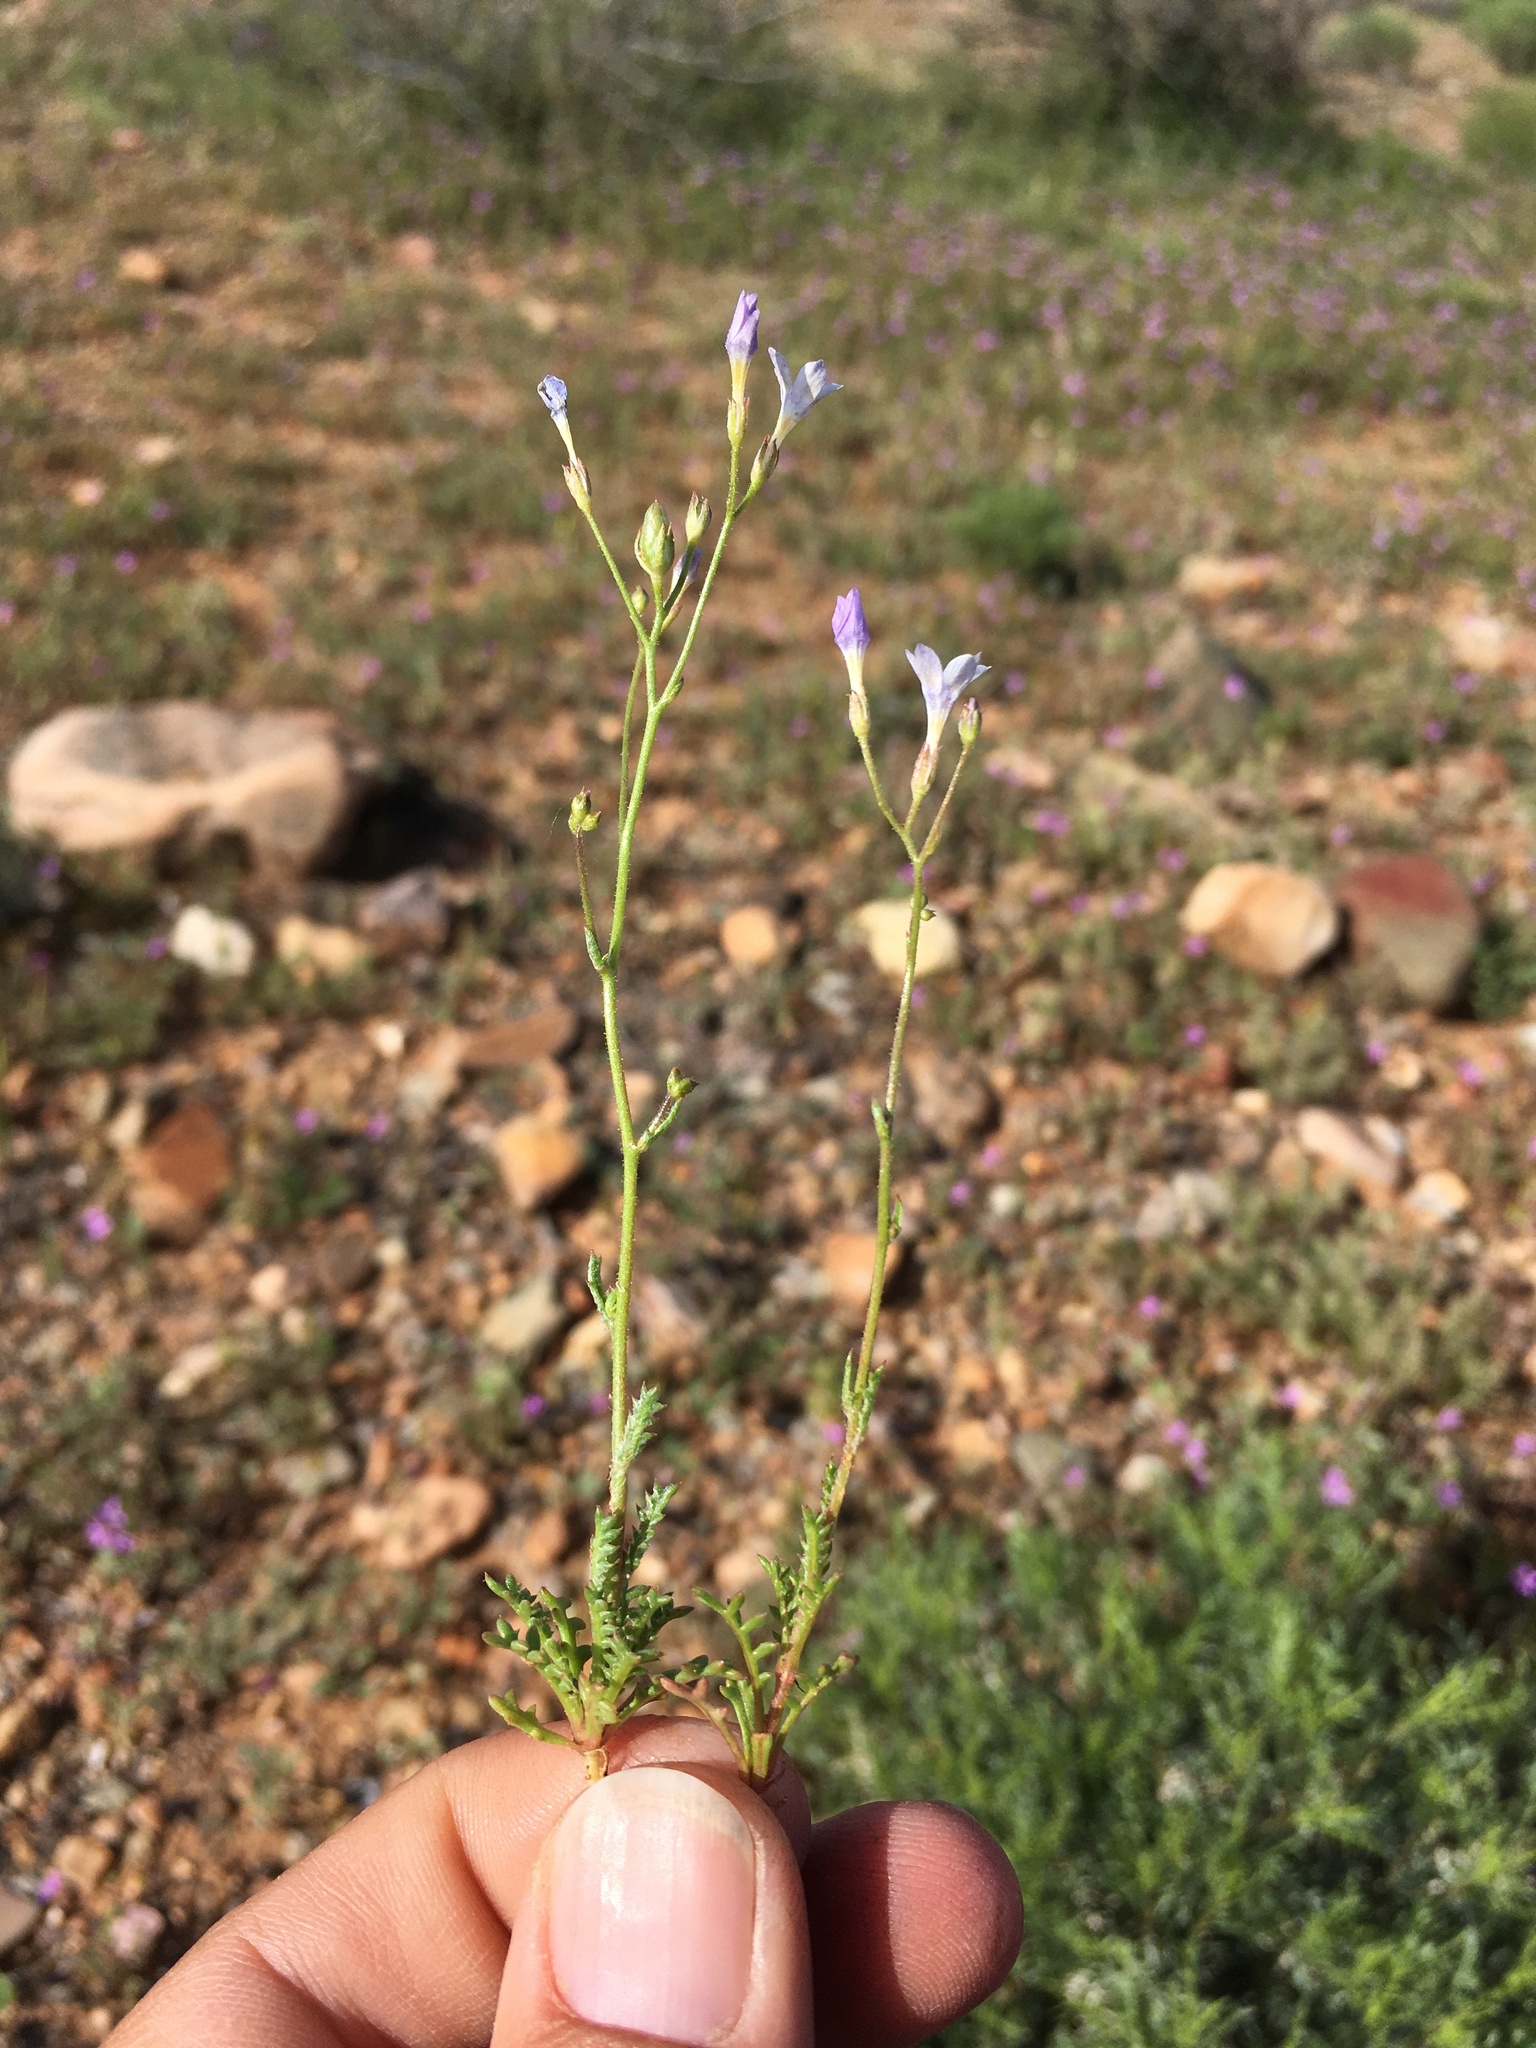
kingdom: Plantae
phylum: Tracheophyta
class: Magnoliopsida
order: Ericales
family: Polemoniaceae
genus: Gilia
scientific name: Gilia flavocincta
